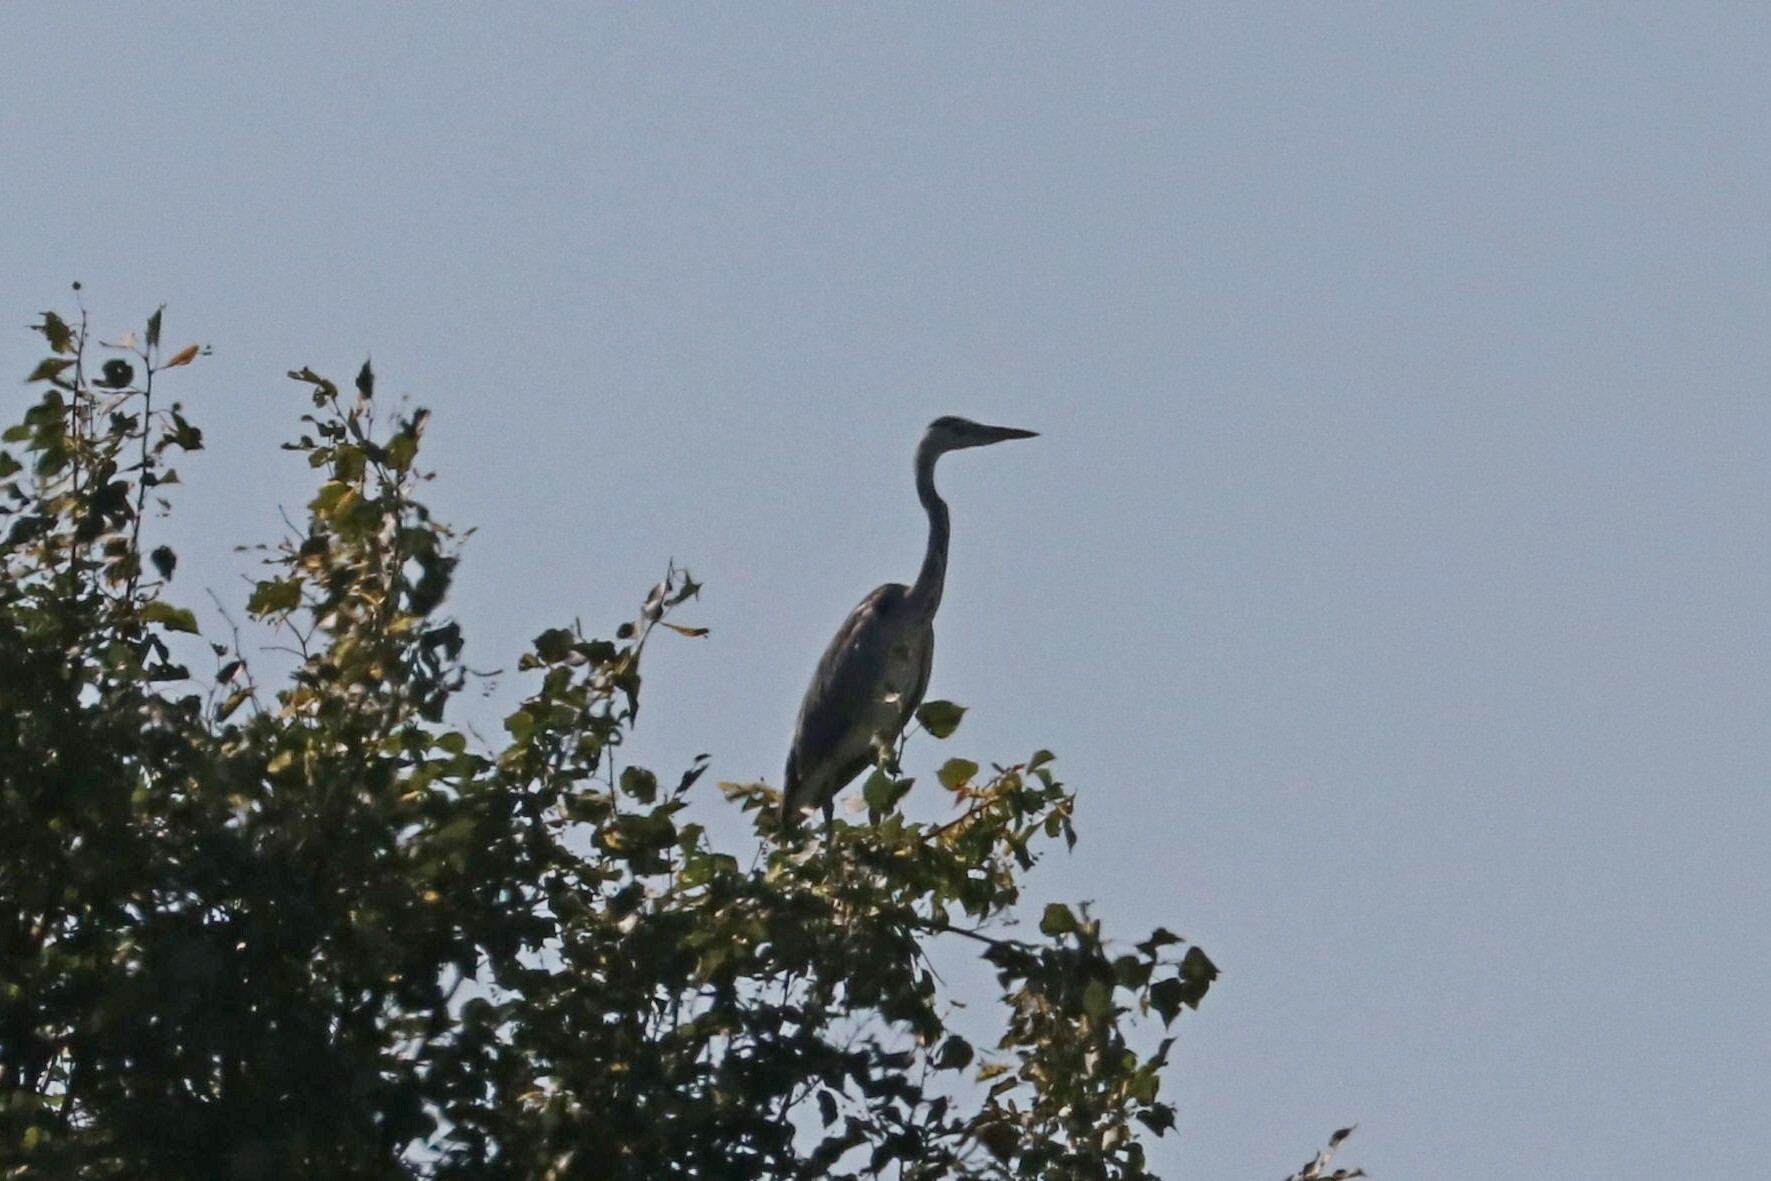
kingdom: Animalia
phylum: Chordata
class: Aves
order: Pelecaniformes
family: Ardeidae
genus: Ardea
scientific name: Ardea cinerea
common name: Grey heron
